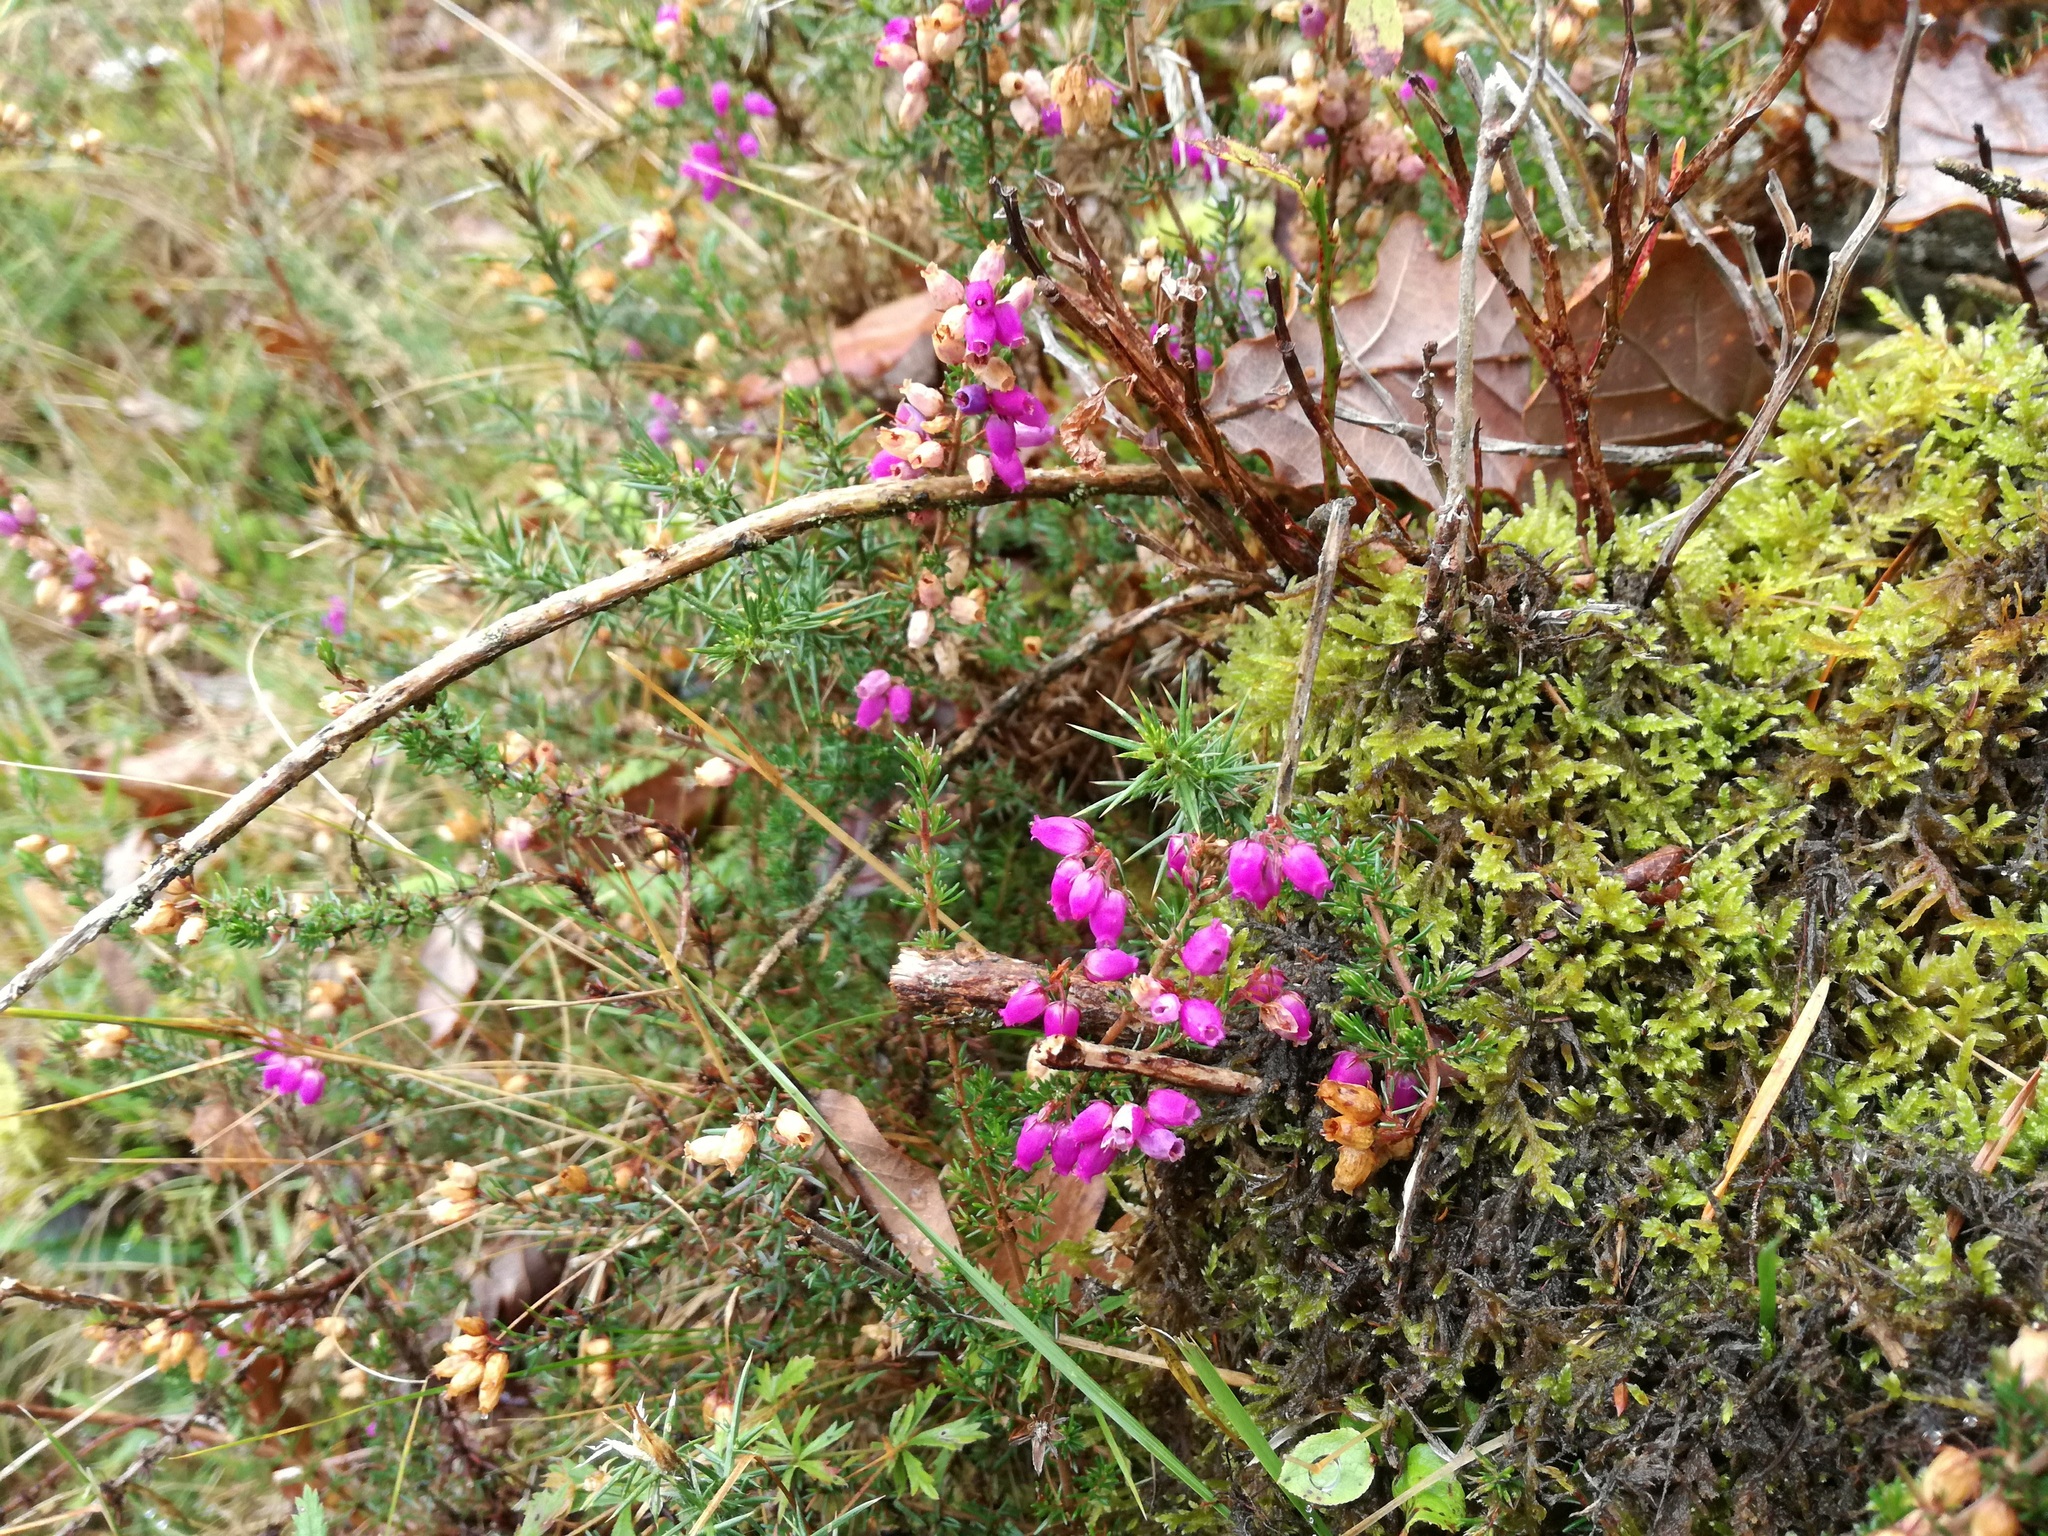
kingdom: Plantae
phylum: Tracheophyta
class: Magnoliopsida
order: Ericales
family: Ericaceae
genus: Erica
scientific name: Erica cinerea
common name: Bell heather
